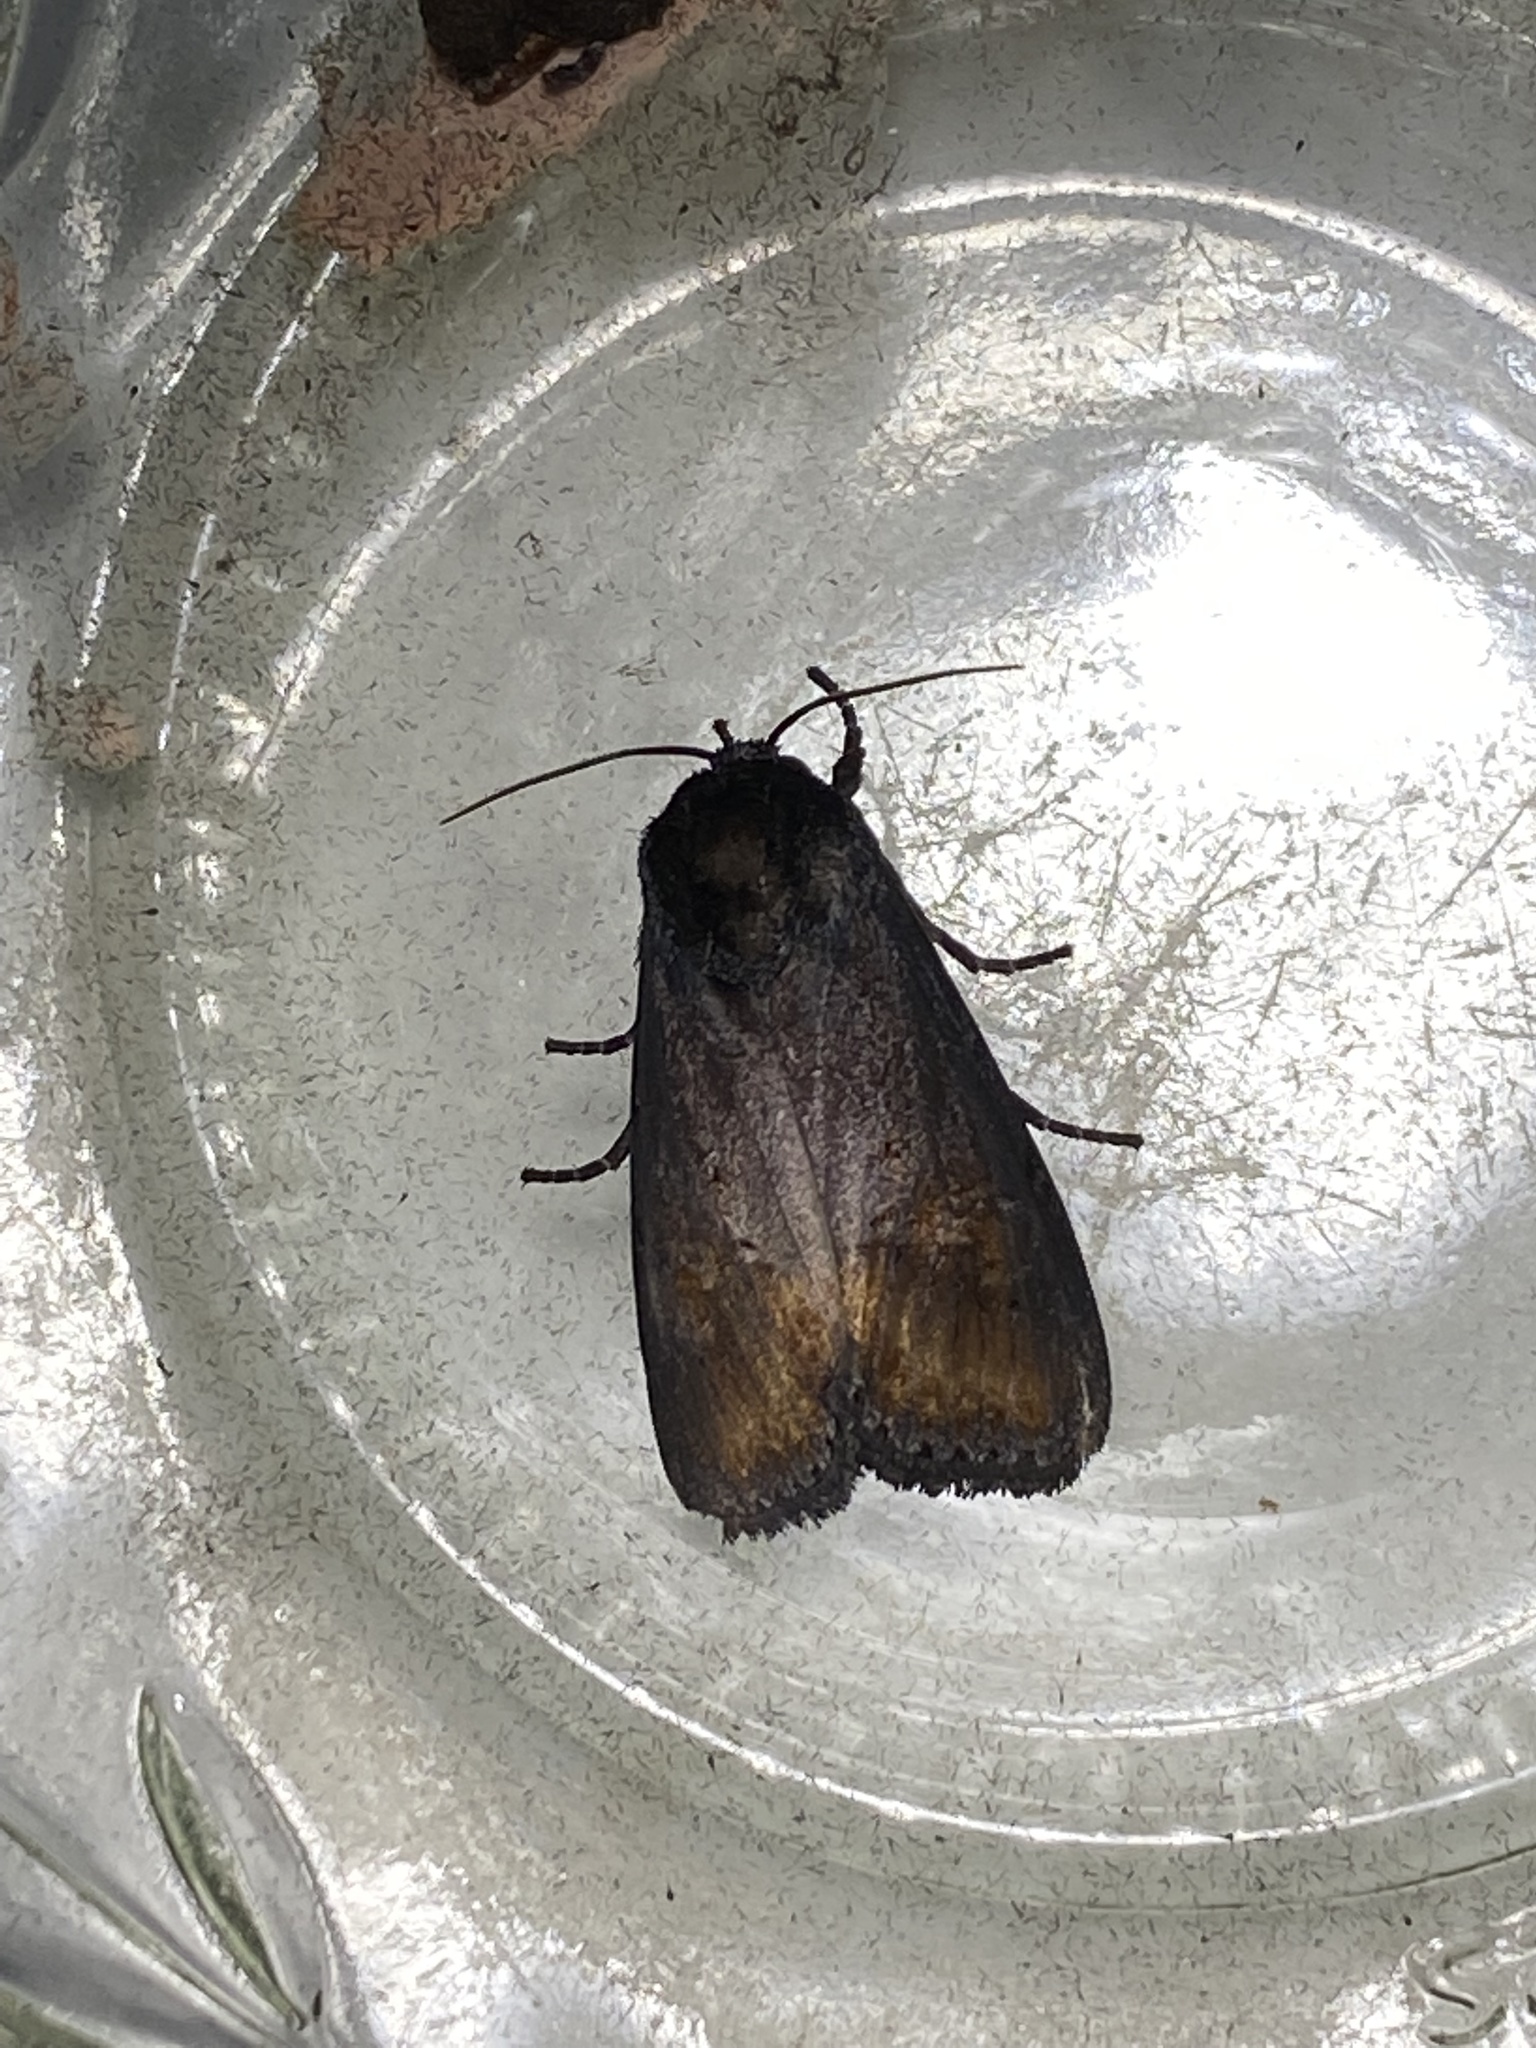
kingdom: Animalia
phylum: Arthropoda
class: Insecta
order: Lepidoptera
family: Noctuidae
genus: Brithys
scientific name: Brithys crini
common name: Kew arches
